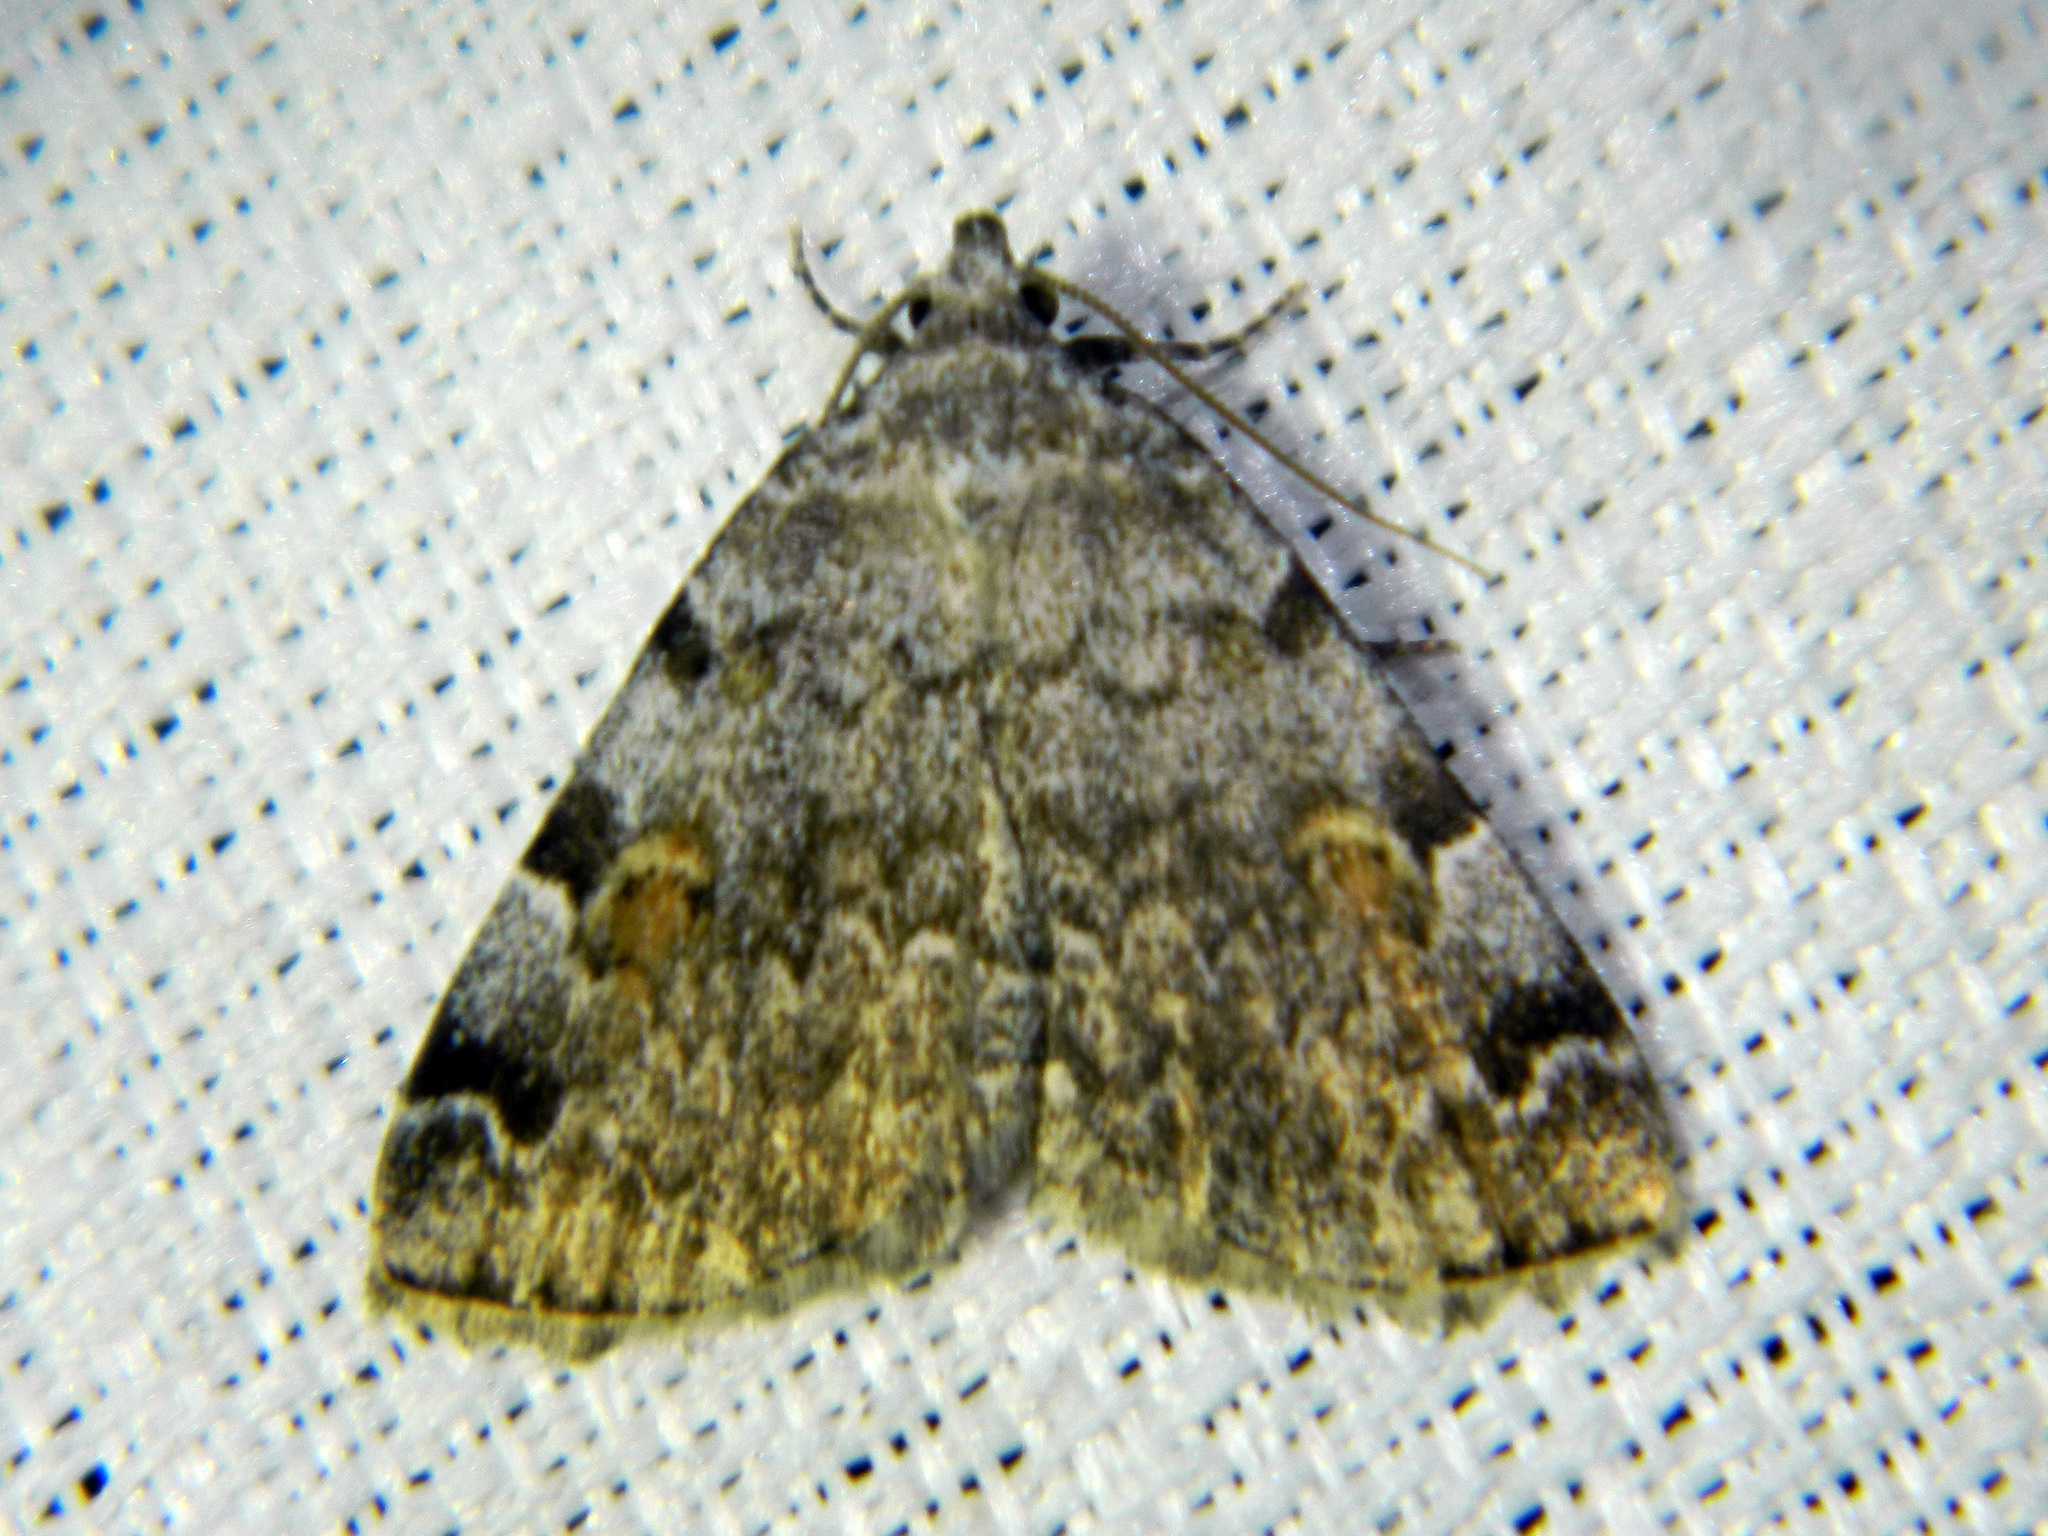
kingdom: Animalia
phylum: Arthropoda
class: Insecta
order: Lepidoptera
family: Erebidae
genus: Idia
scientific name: Idia americalis
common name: American idia moth
